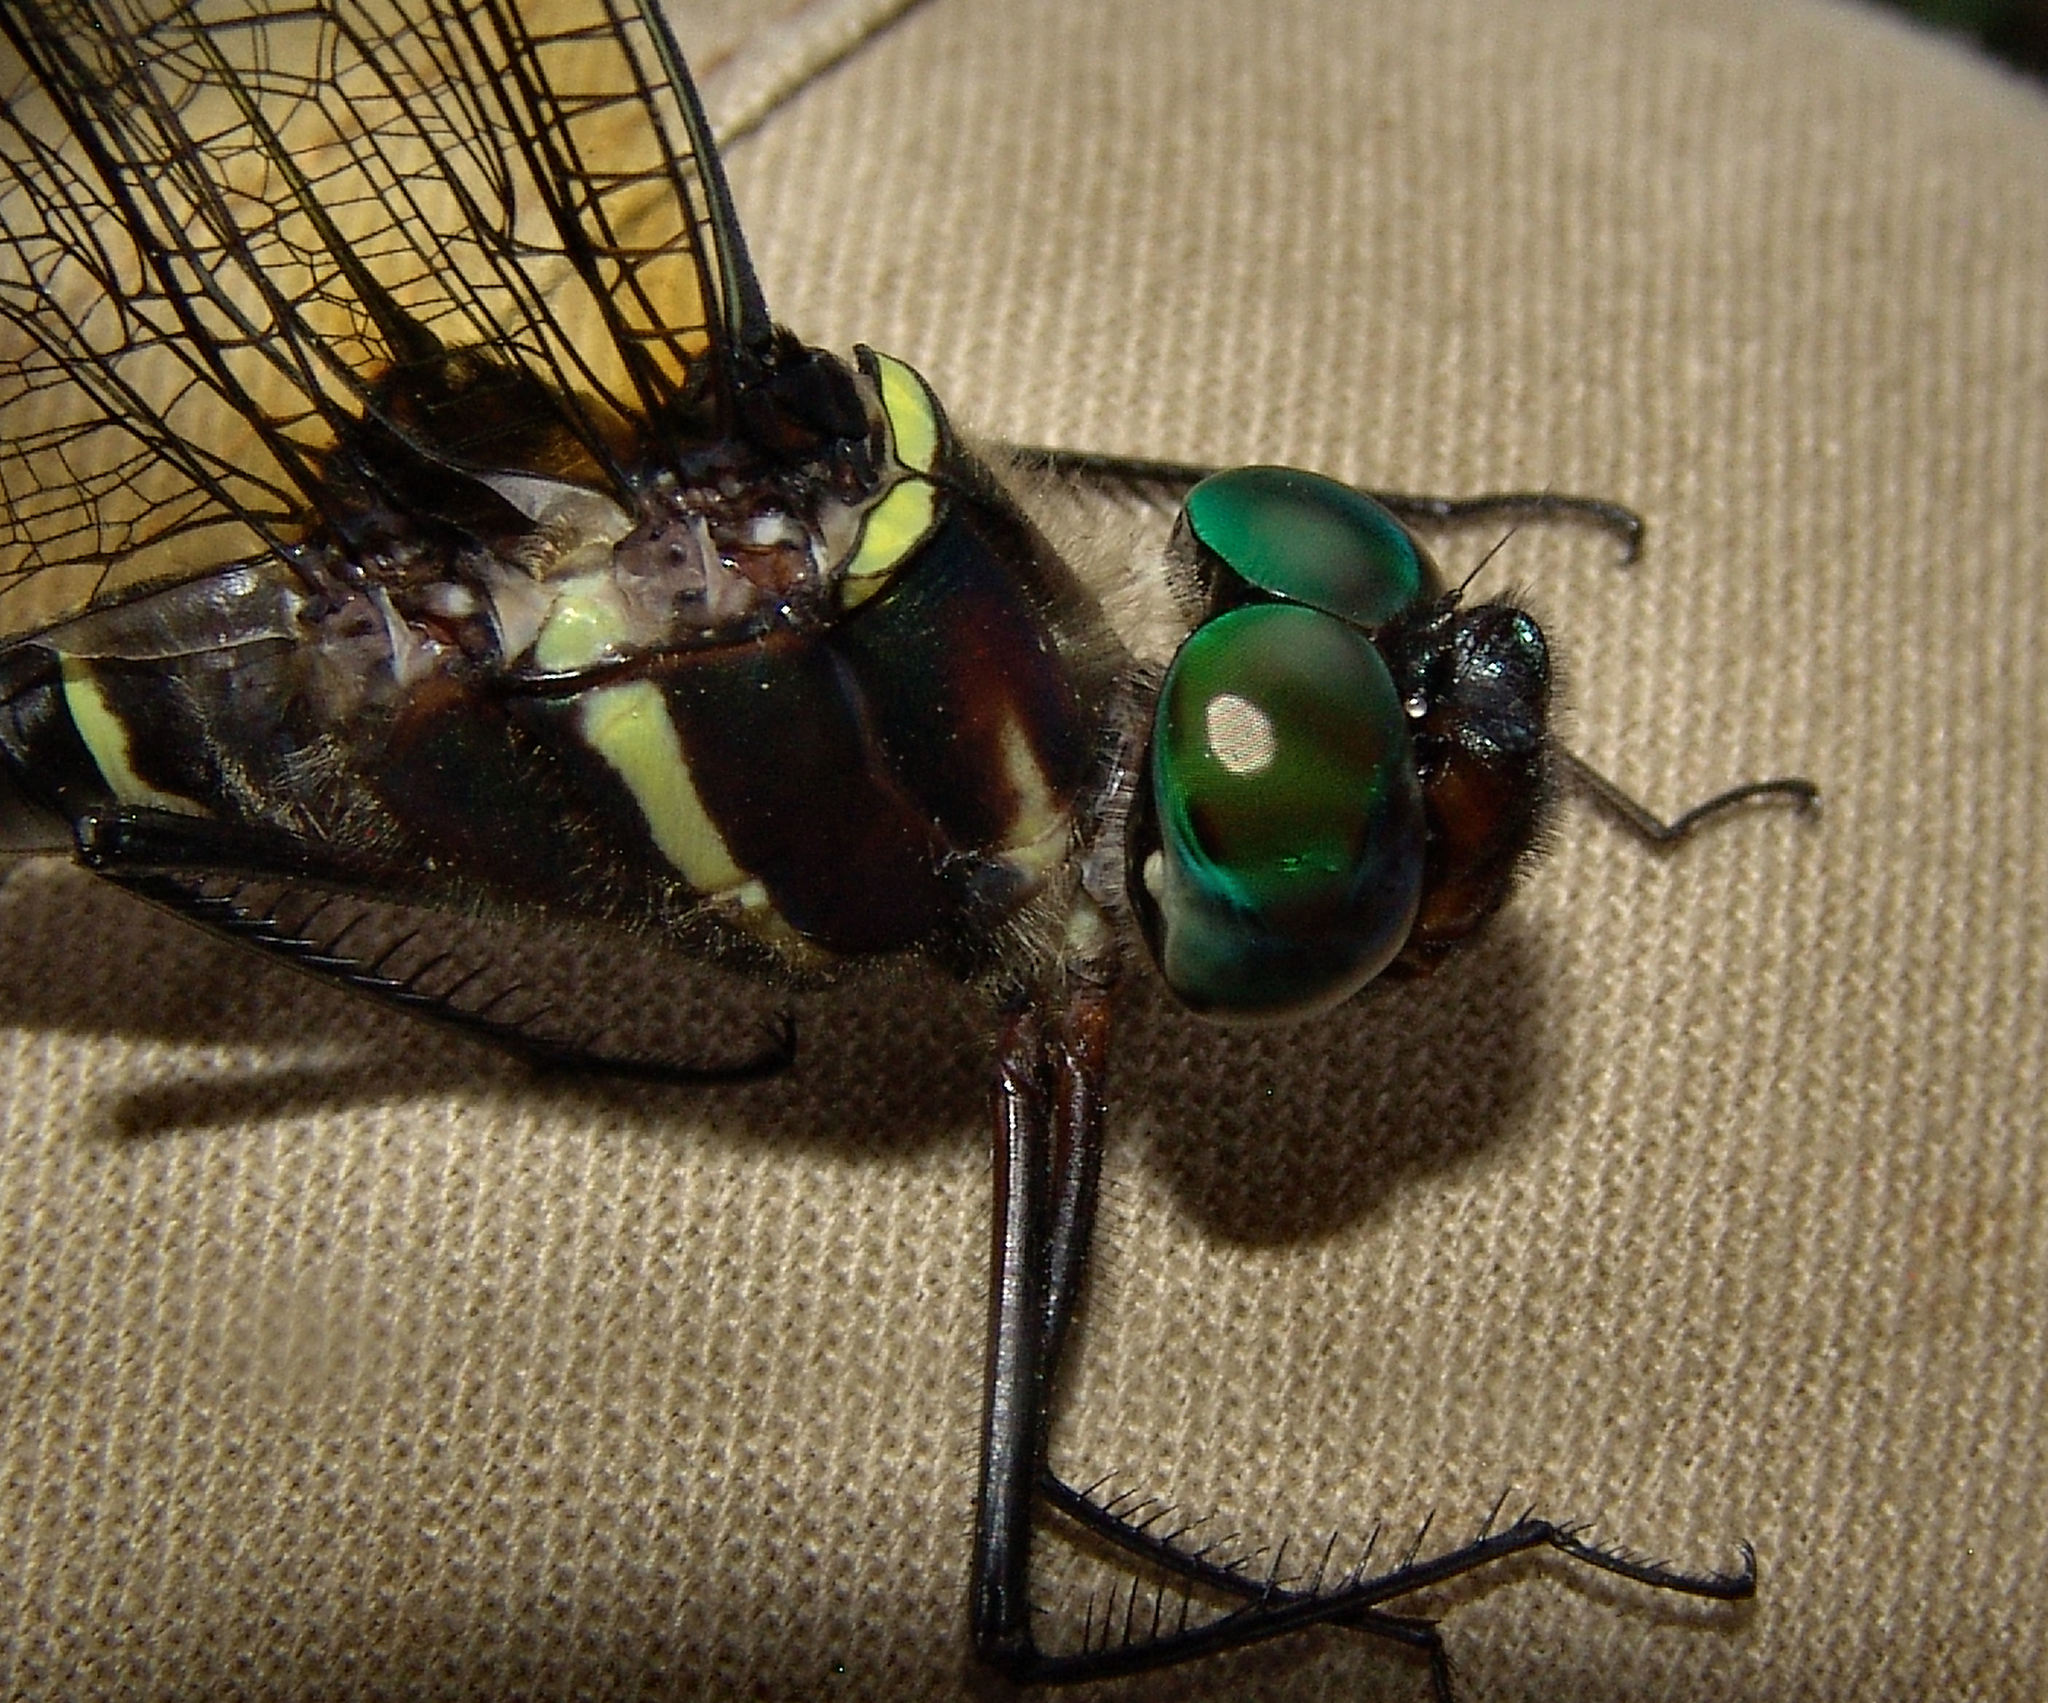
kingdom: Animalia
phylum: Arthropoda
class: Insecta
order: Odonata
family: Macromiidae
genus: Macromia
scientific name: Macromia taeniolata
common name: Royal river cruiser
